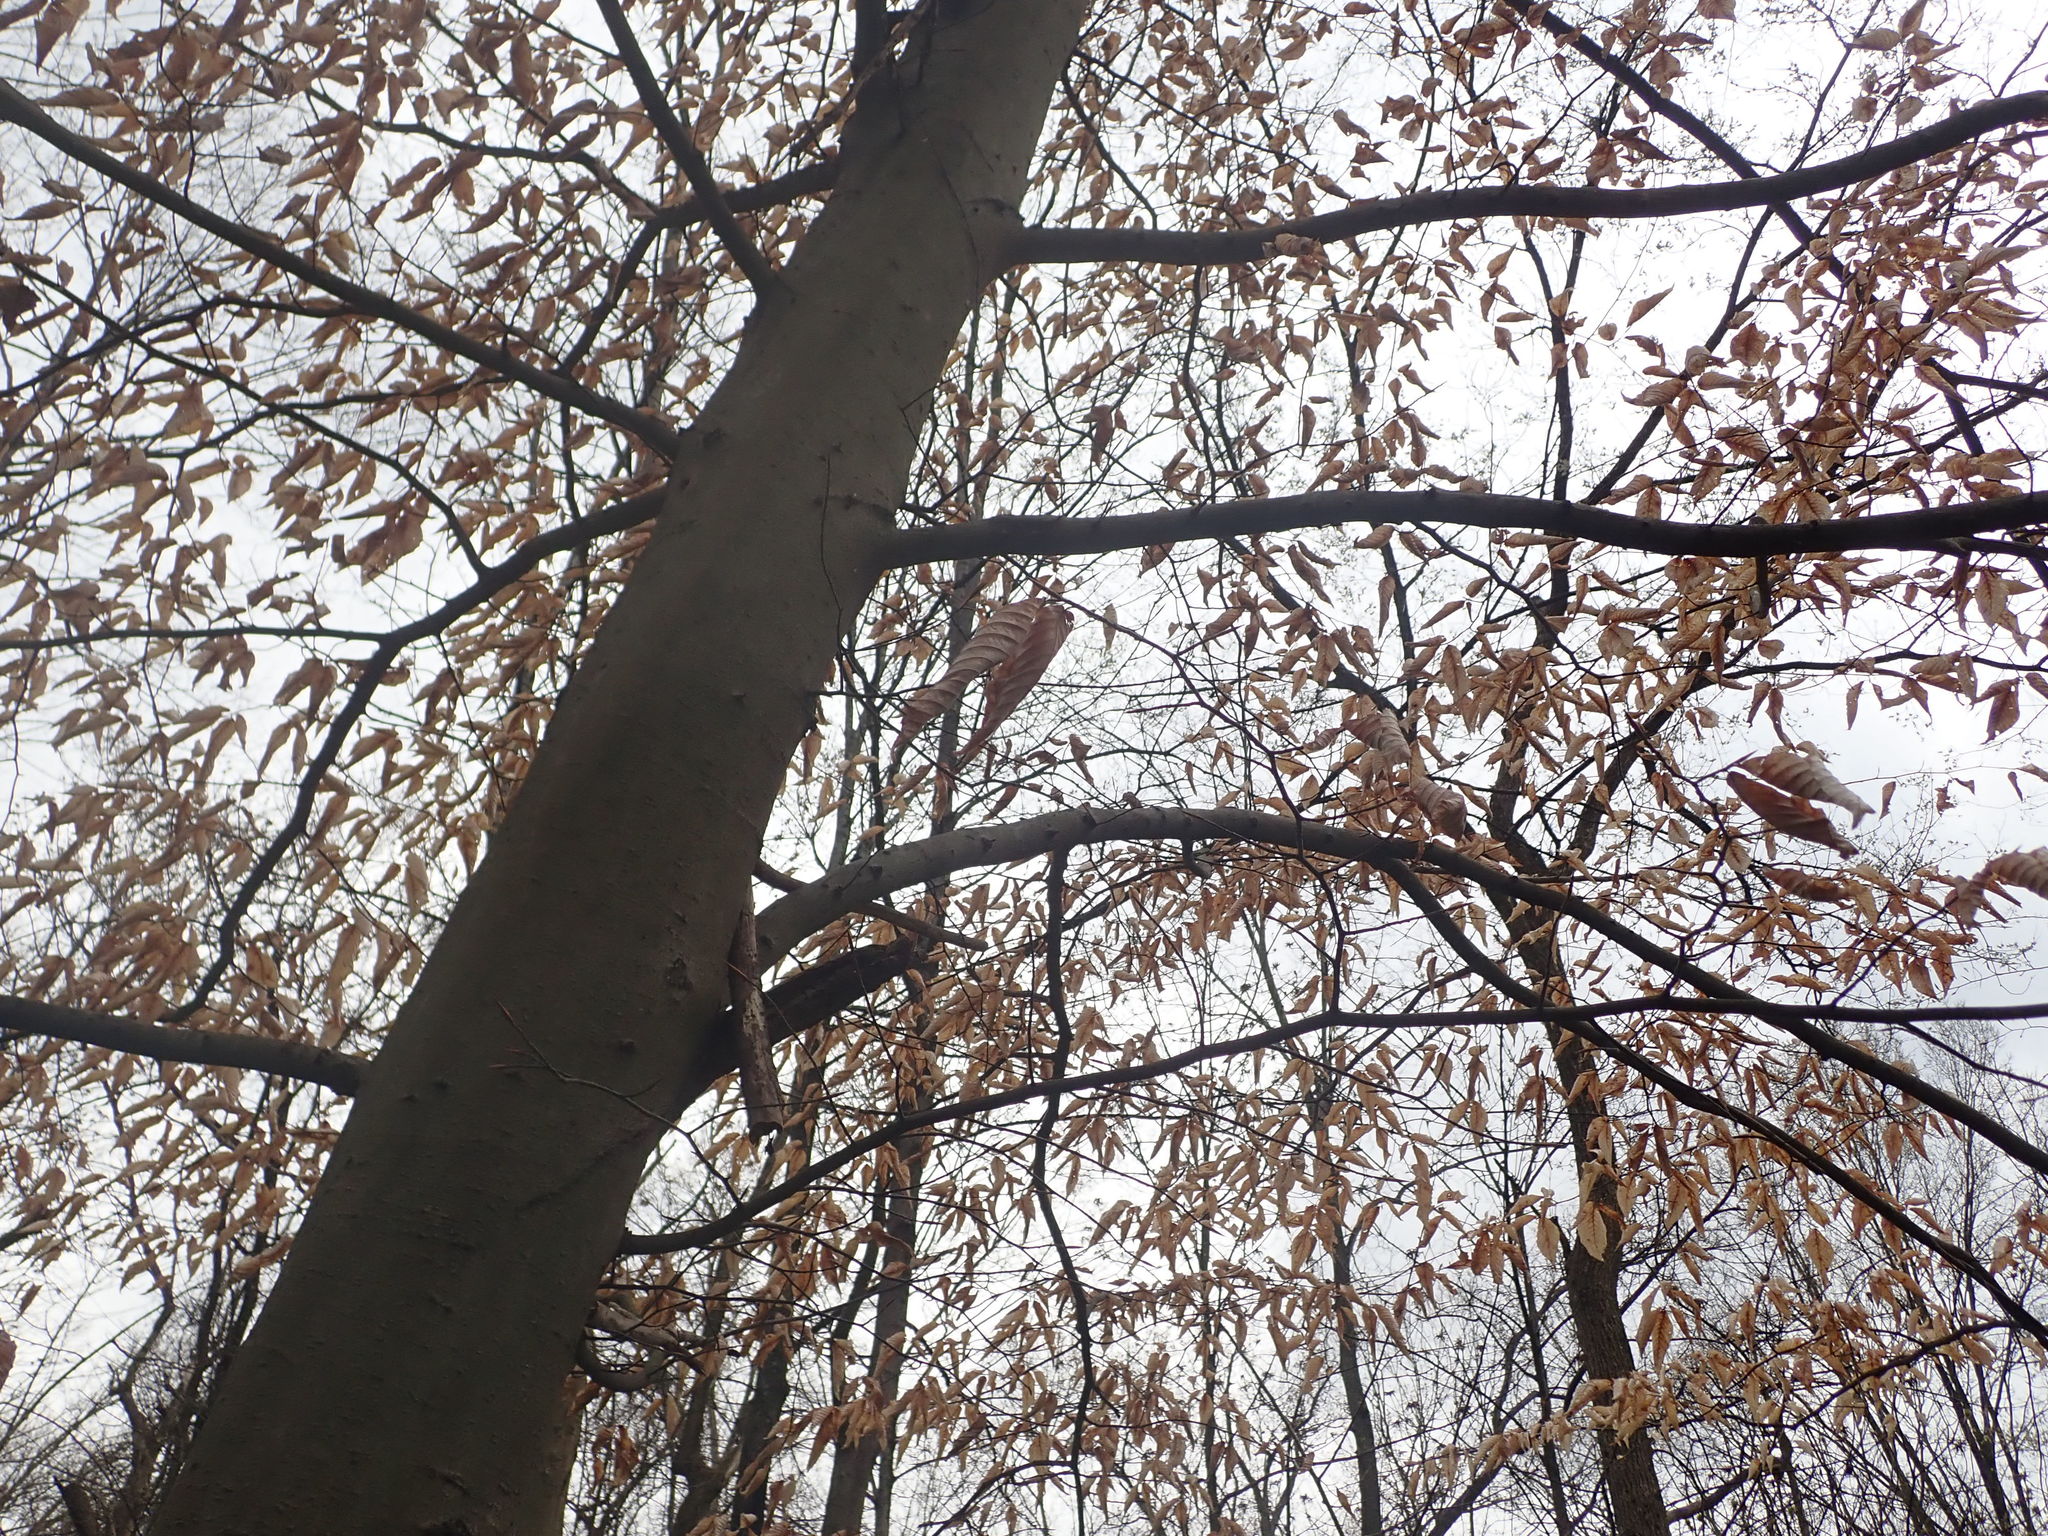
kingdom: Plantae
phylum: Tracheophyta
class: Magnoliopsida
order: Fagales
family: Fagaceae
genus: Fagus
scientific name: Fagus grandifolia
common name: American beech
